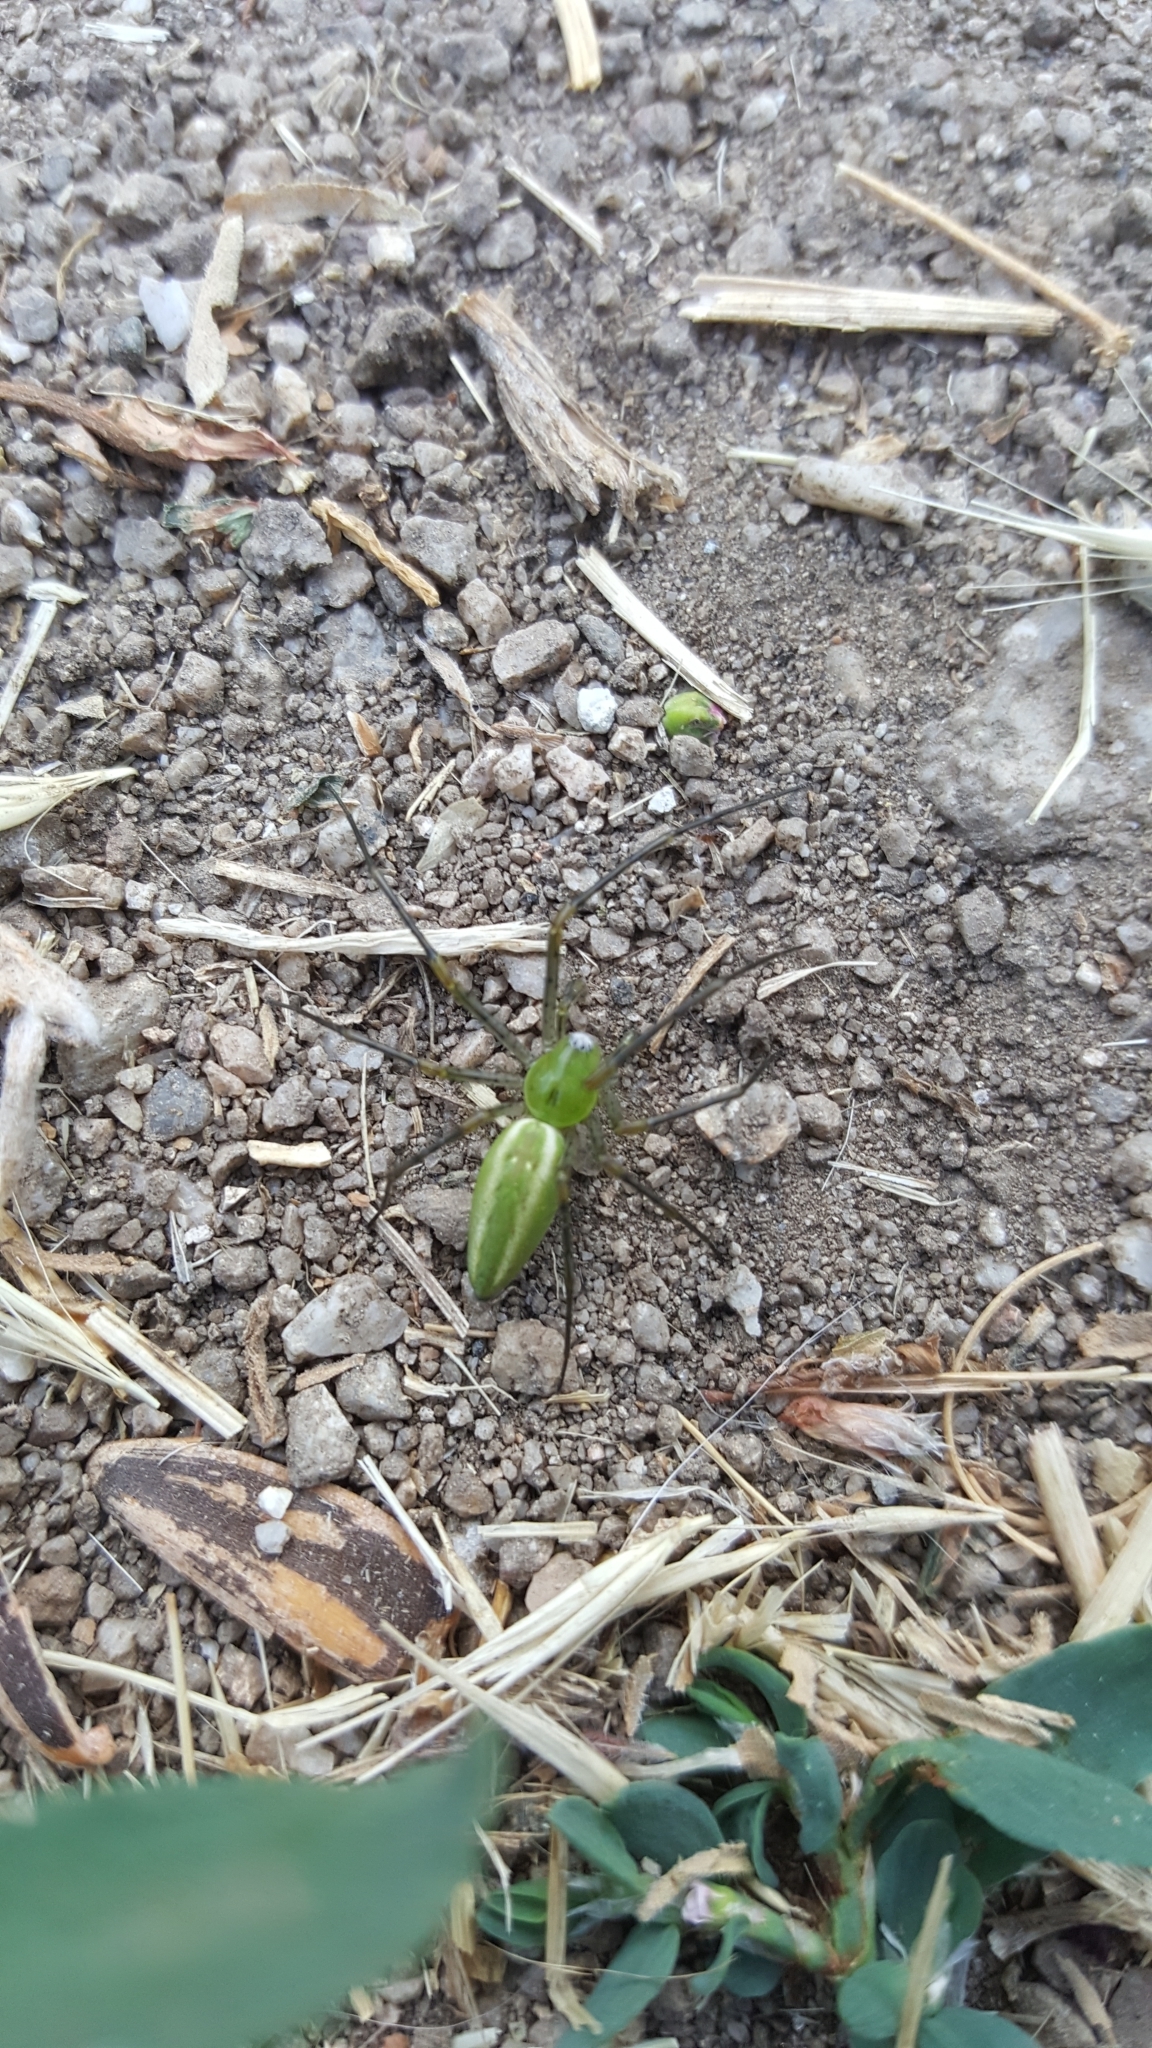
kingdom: Animalia
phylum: Arthropoda
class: Arachnida
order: Araneae
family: Oxyopidae
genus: Peucetia
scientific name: Peucetia viridans
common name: Lynx spiders
